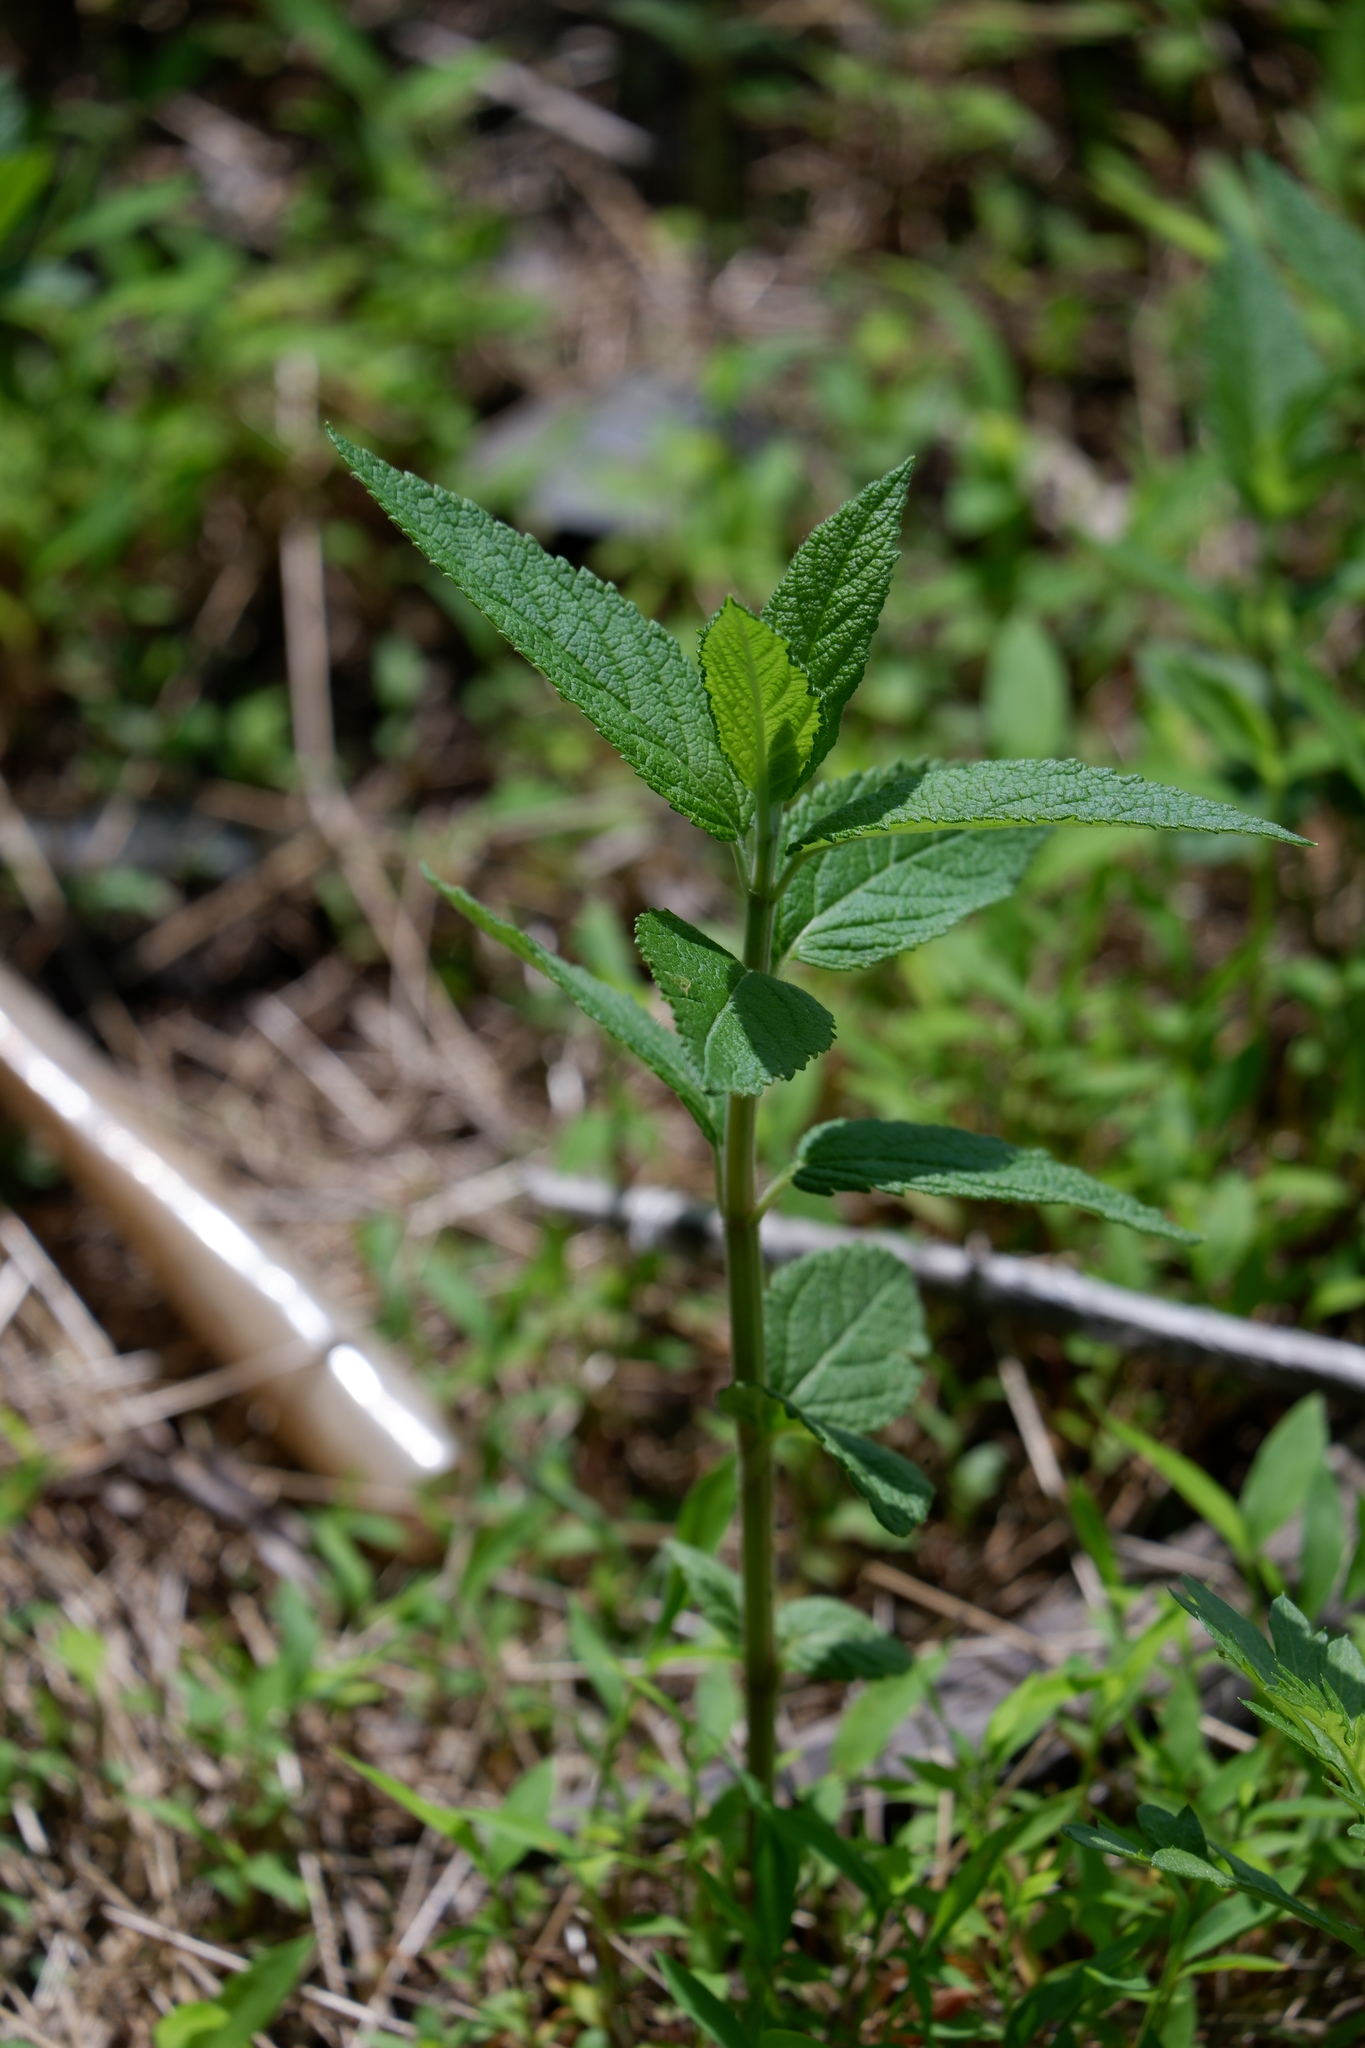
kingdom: Plantae
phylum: Tracheophyta
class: Magnoliopsida
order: Lamiales
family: Lamiaceae
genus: Teucrium
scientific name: Teucrium canadense
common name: American germander
